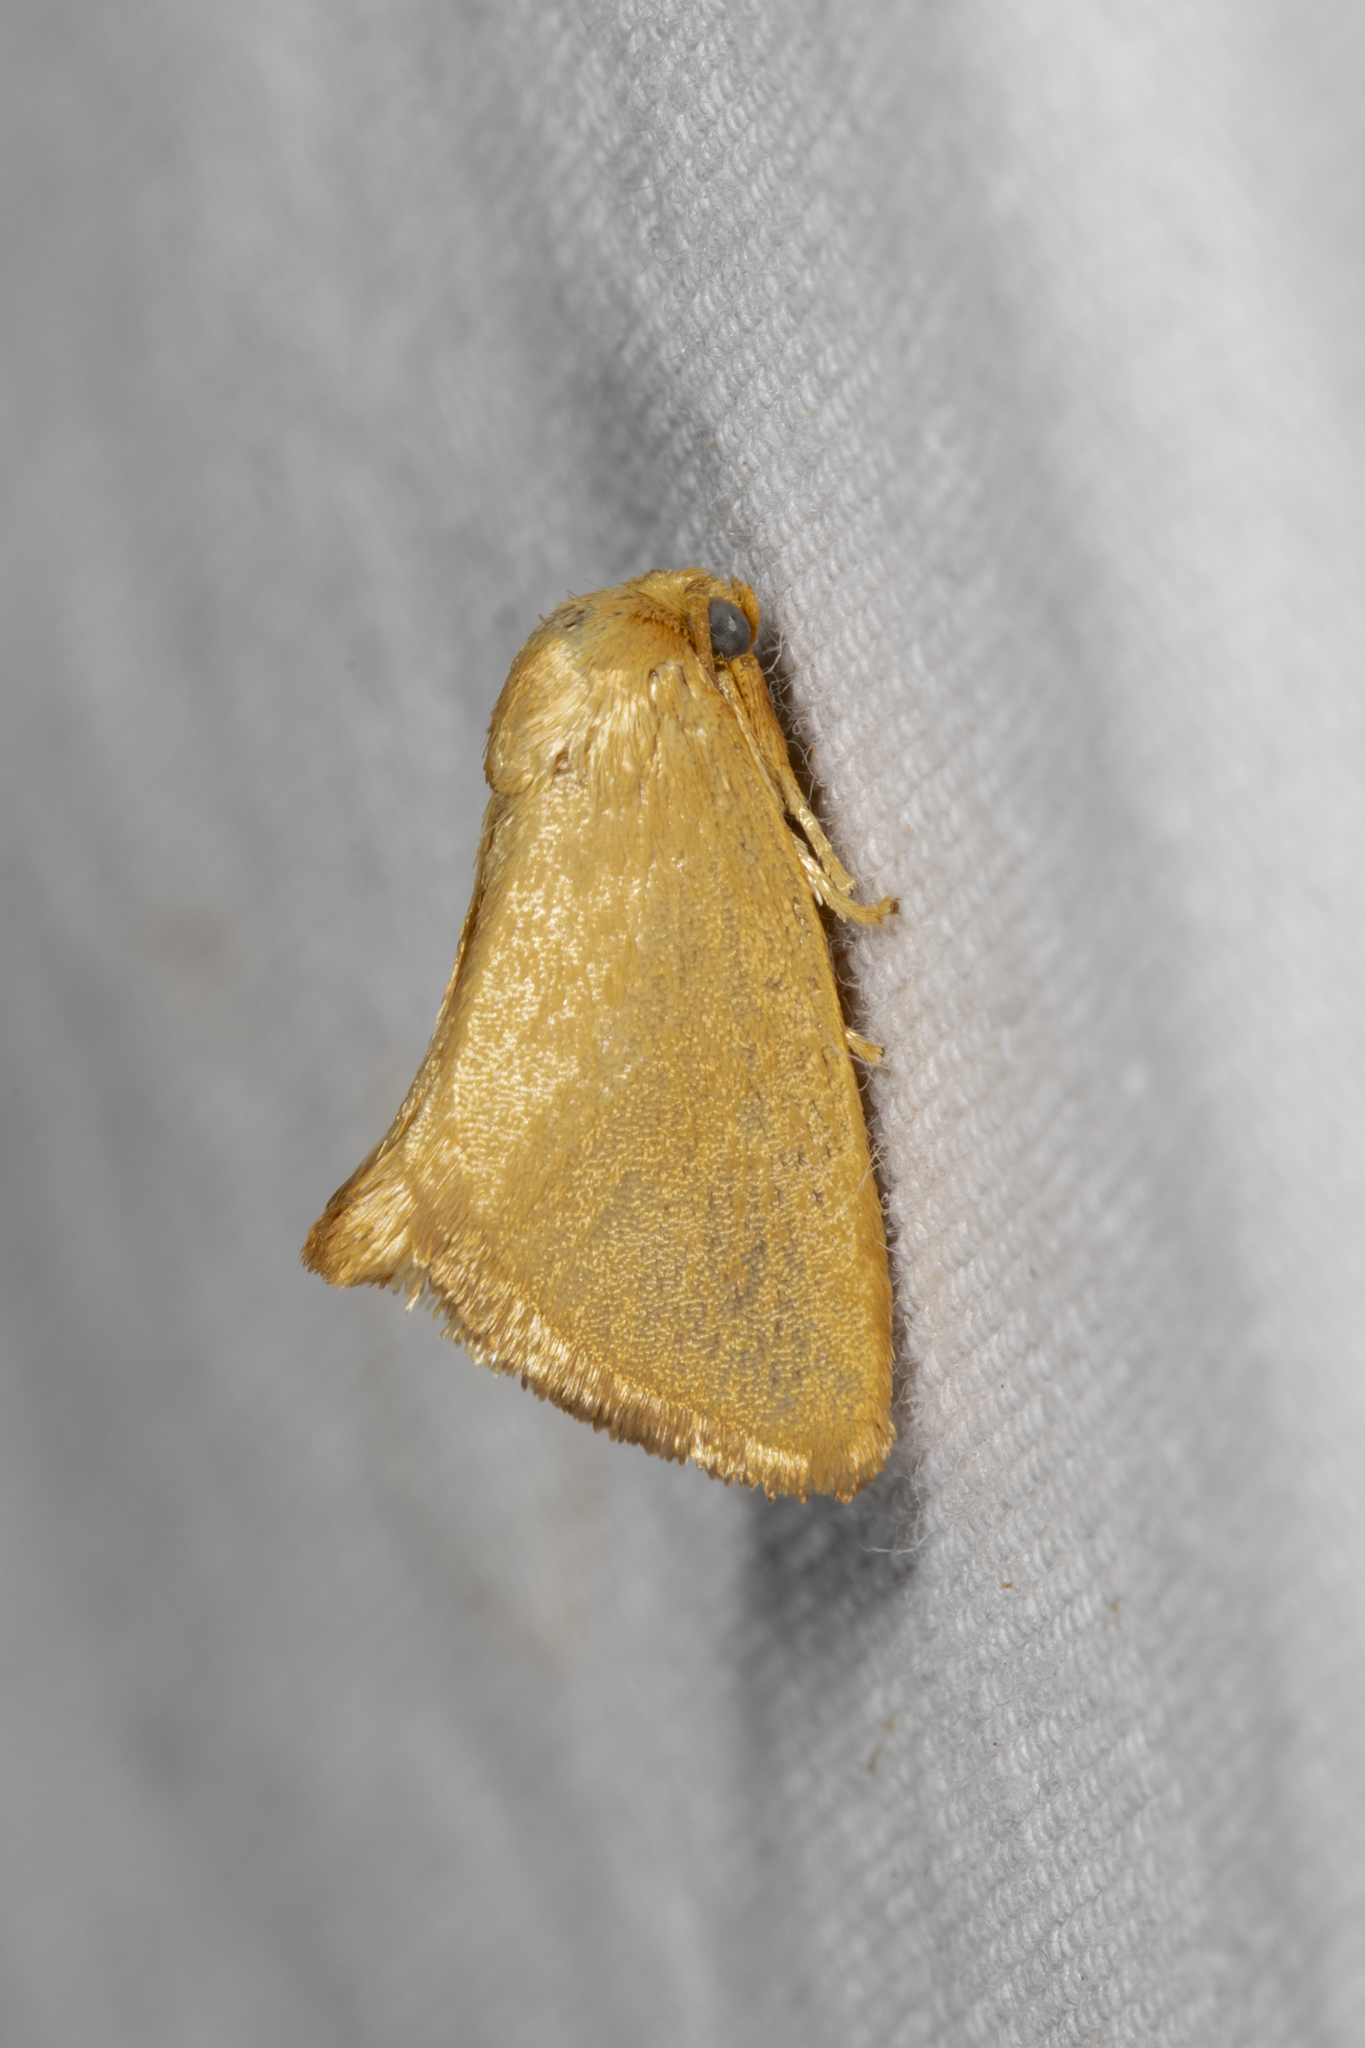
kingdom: Animalia
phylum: Arthropoda
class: Insecta
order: Lepidoptera
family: Limacodidae
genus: Tortricidia
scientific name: Tortricidia pallida
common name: Red-crossed button slug moth
